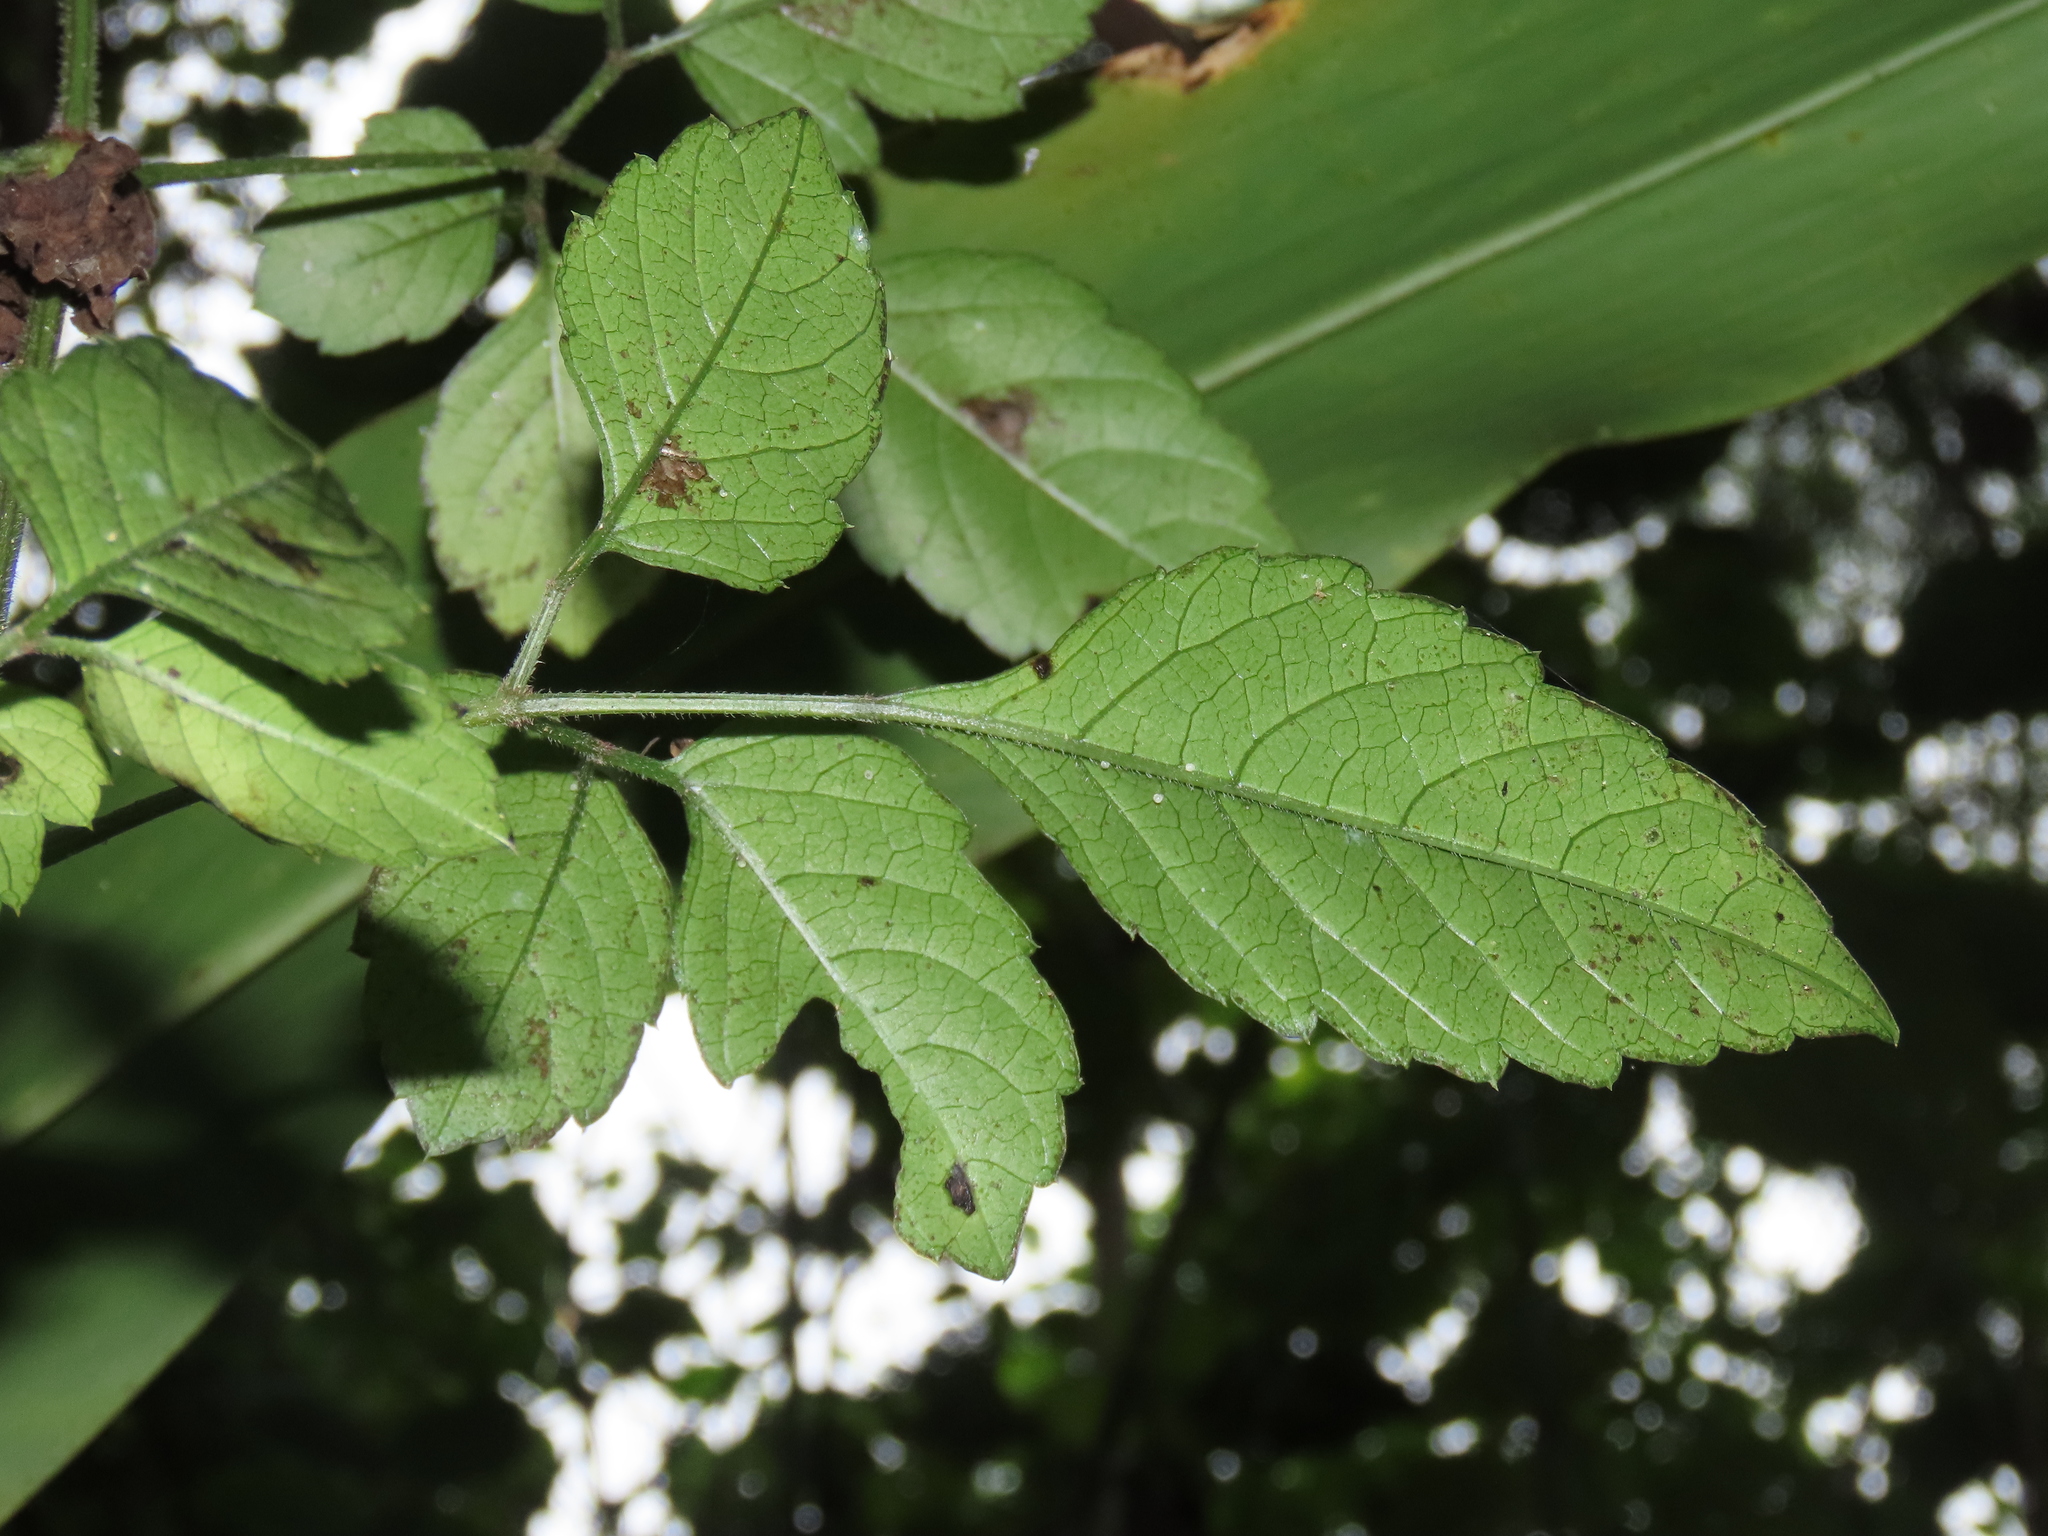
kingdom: Plantae
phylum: Tracheophyta
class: Magnoliopsida
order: Vitales
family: Vitaceae
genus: Causonis
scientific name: Causonis japonica
